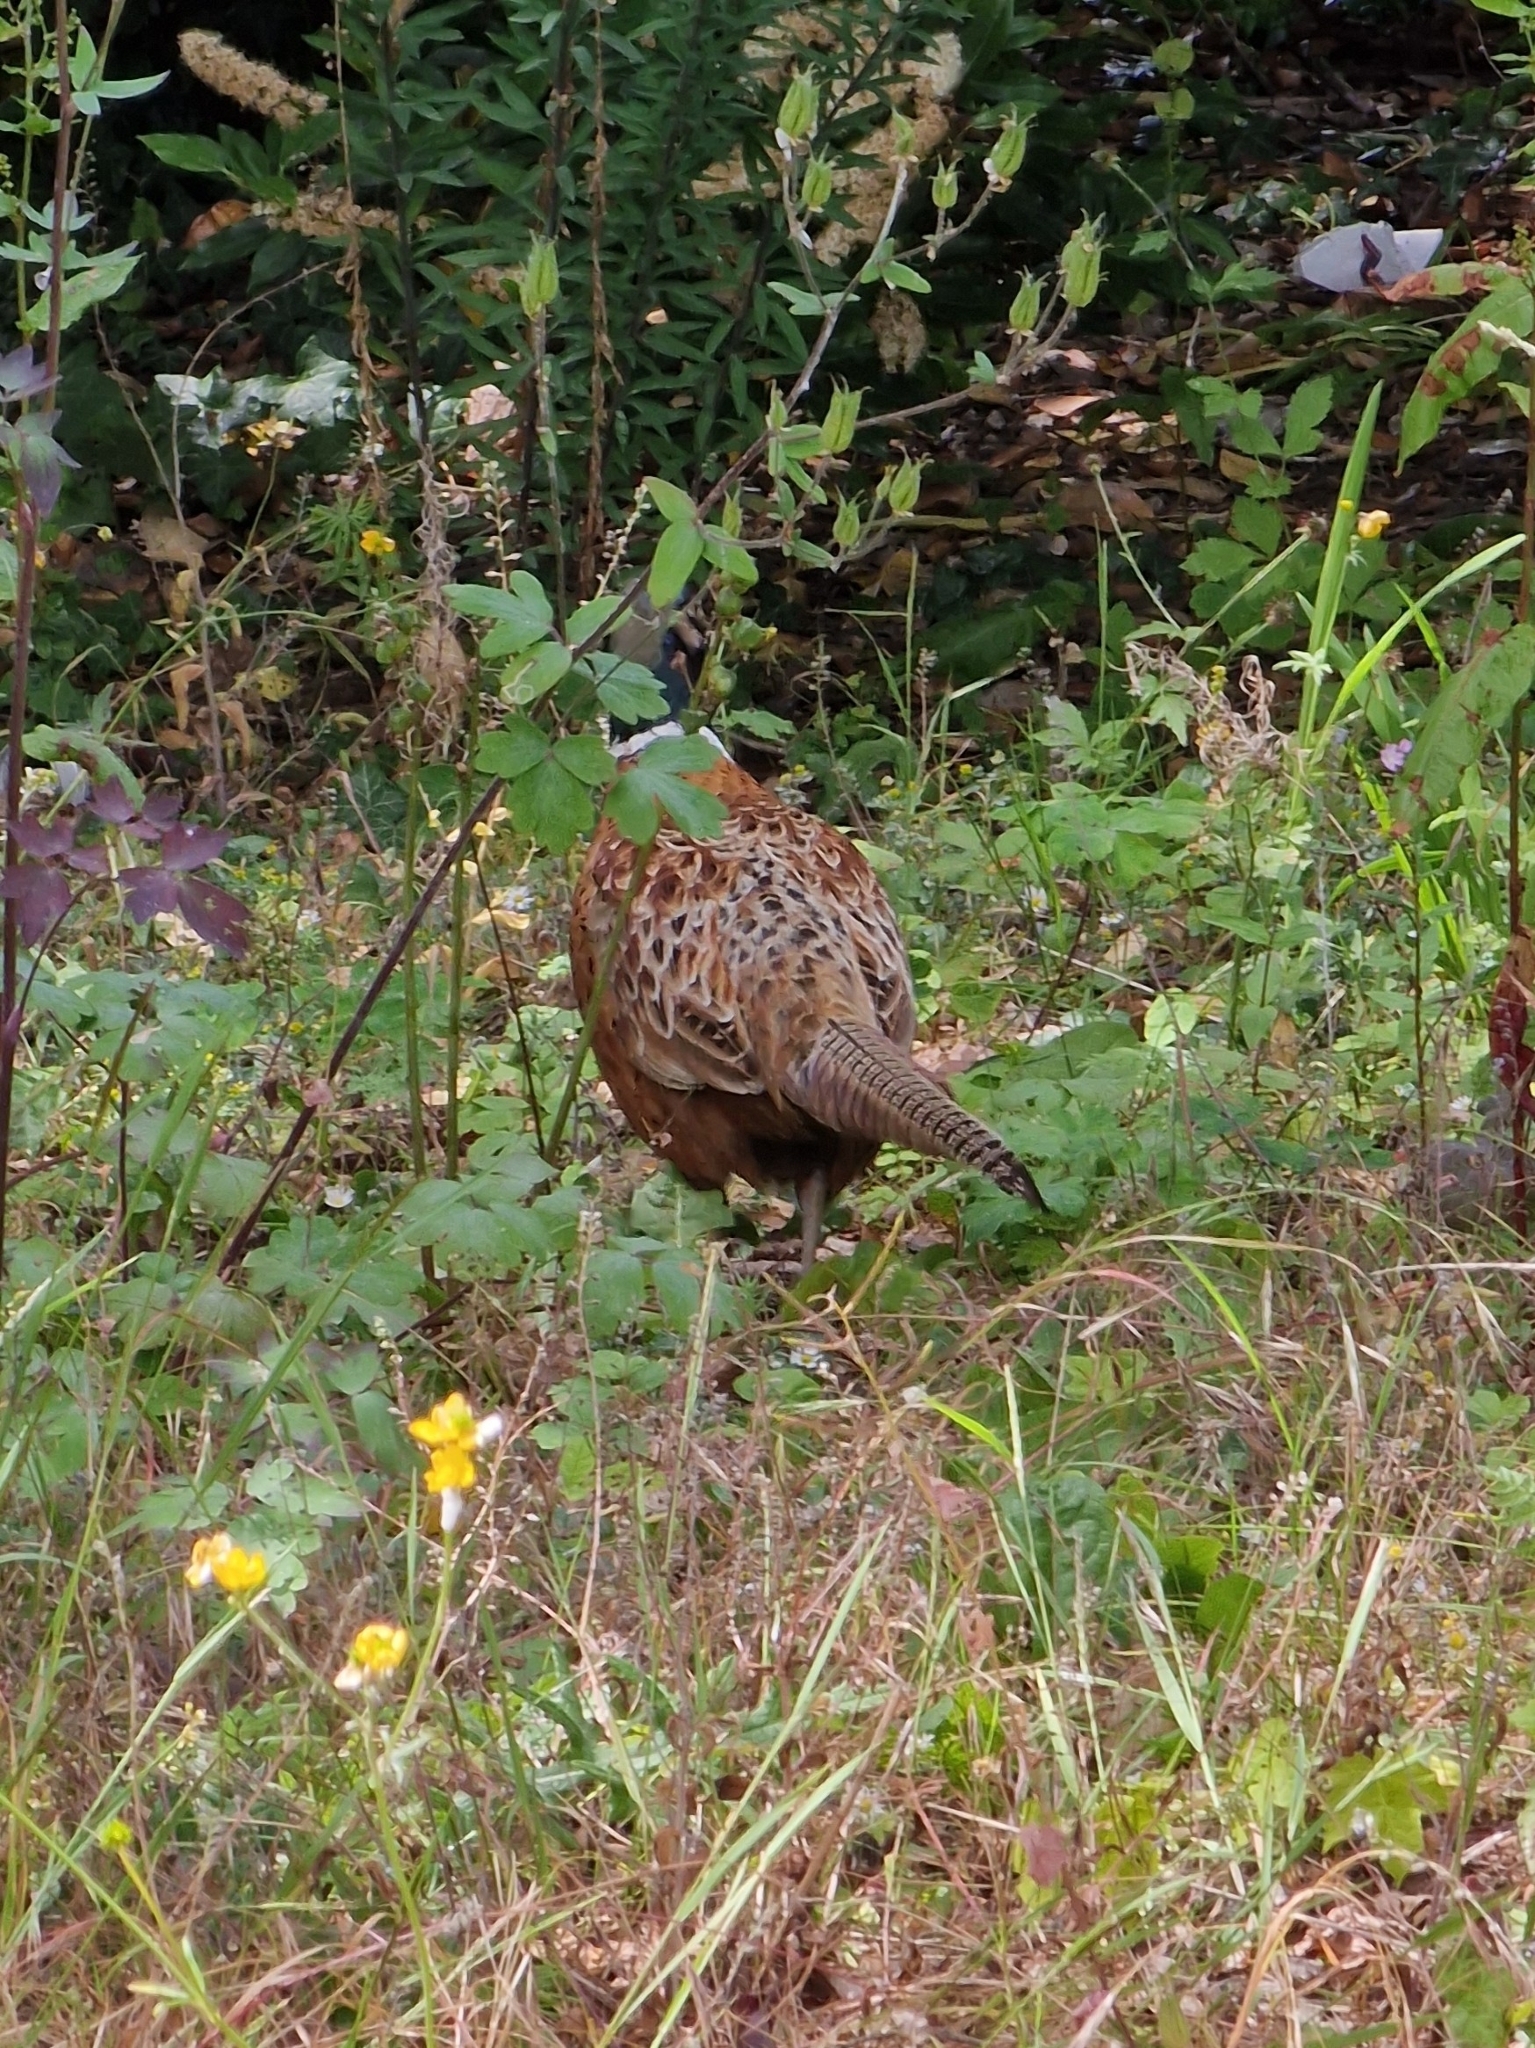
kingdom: Animalia
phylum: Chordata
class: Aves
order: Galliformes
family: Phasianidae
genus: Phasianus
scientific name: Phasianus colchicus
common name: Common pheasant
